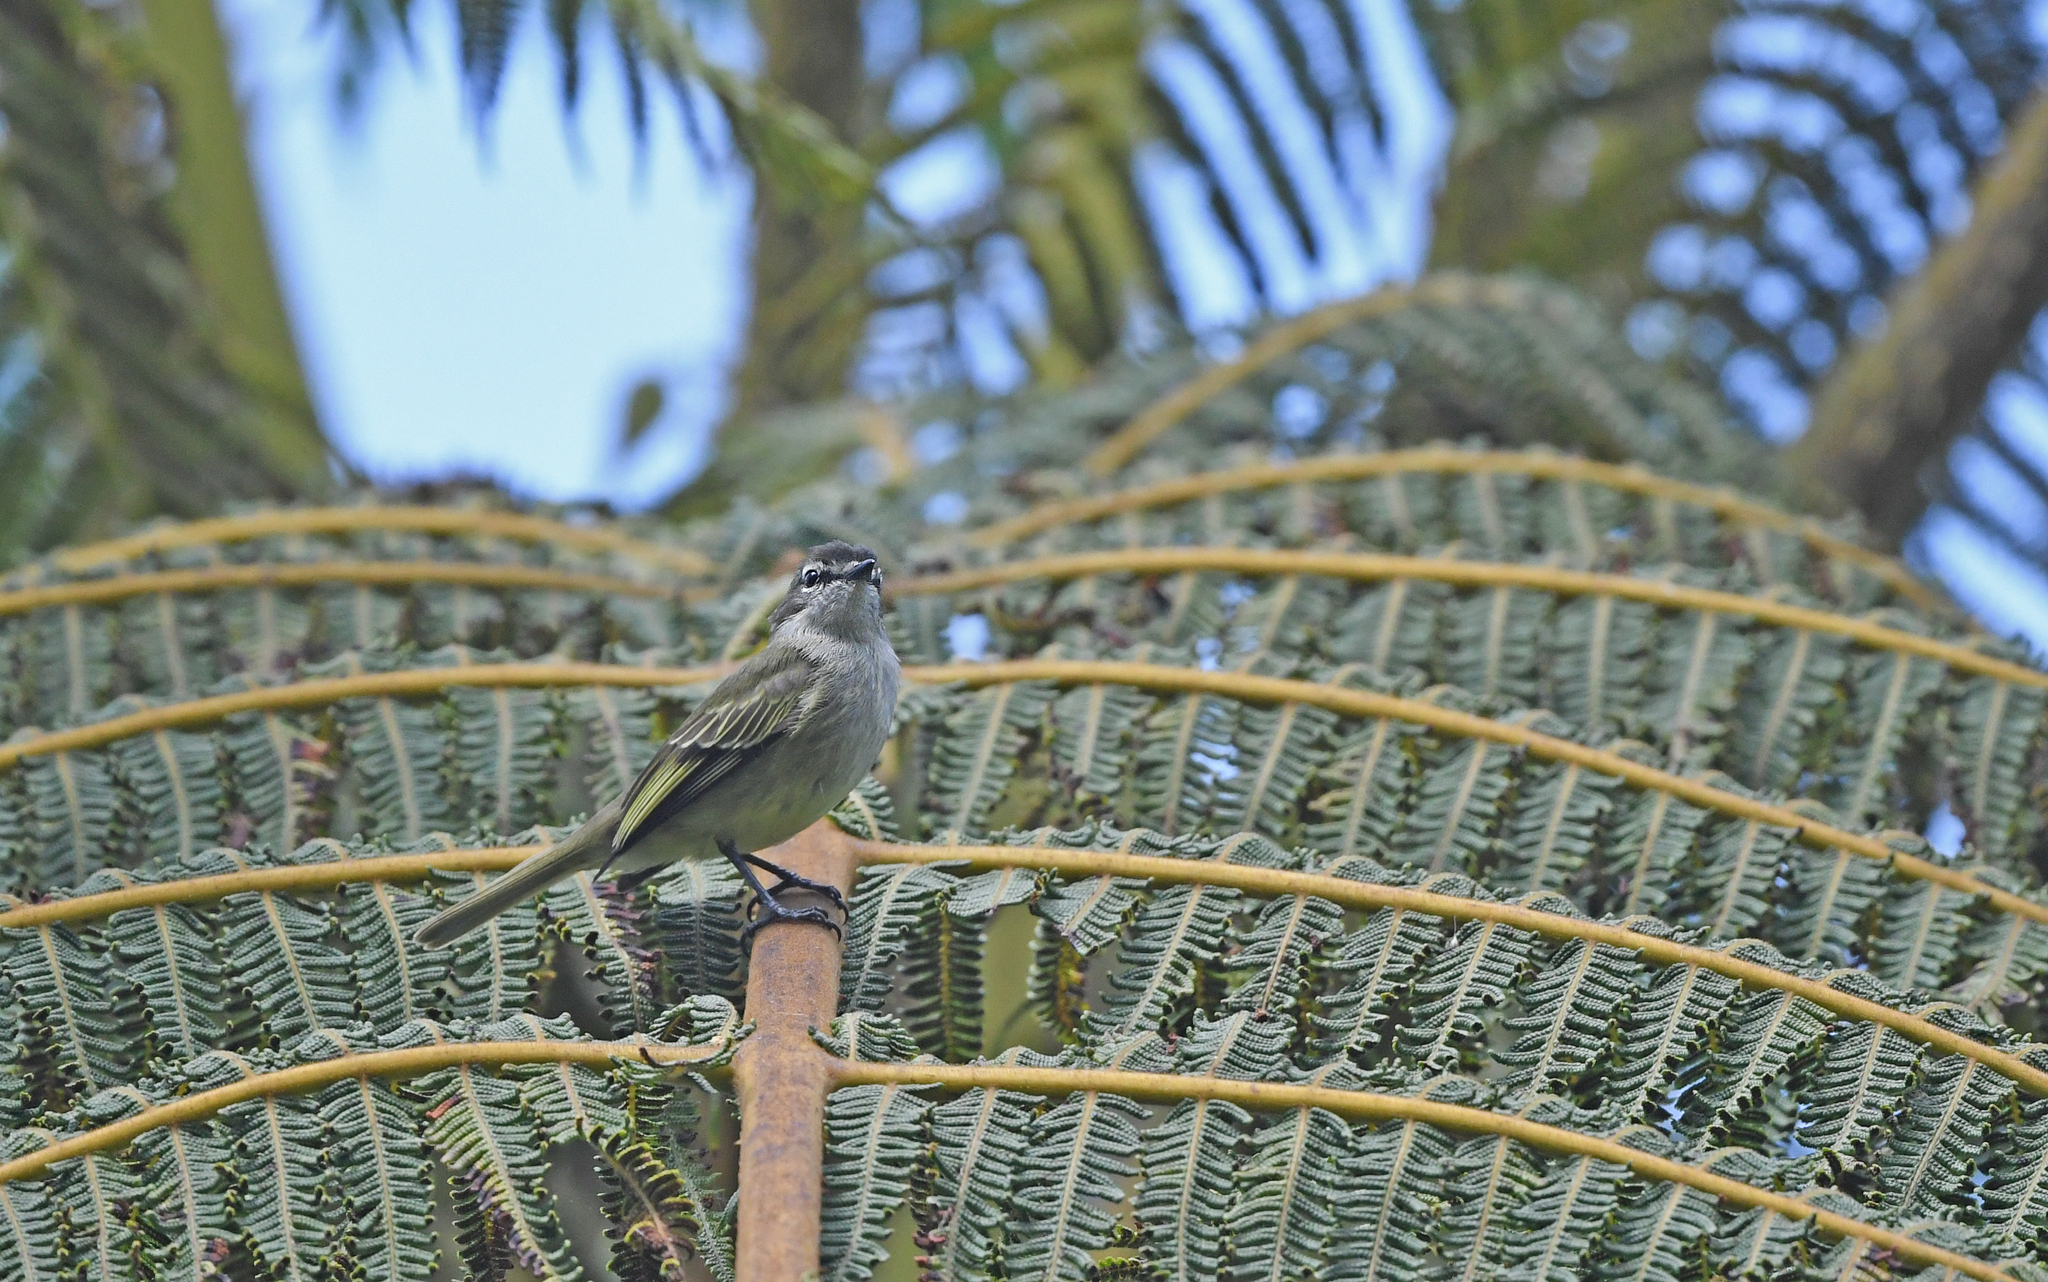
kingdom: Animalia
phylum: Chordata
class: Aves
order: Passeriformes
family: Tyrannidae
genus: Zimmerius
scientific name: Zimmerius vilissimus
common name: Paltry tyrannulet
